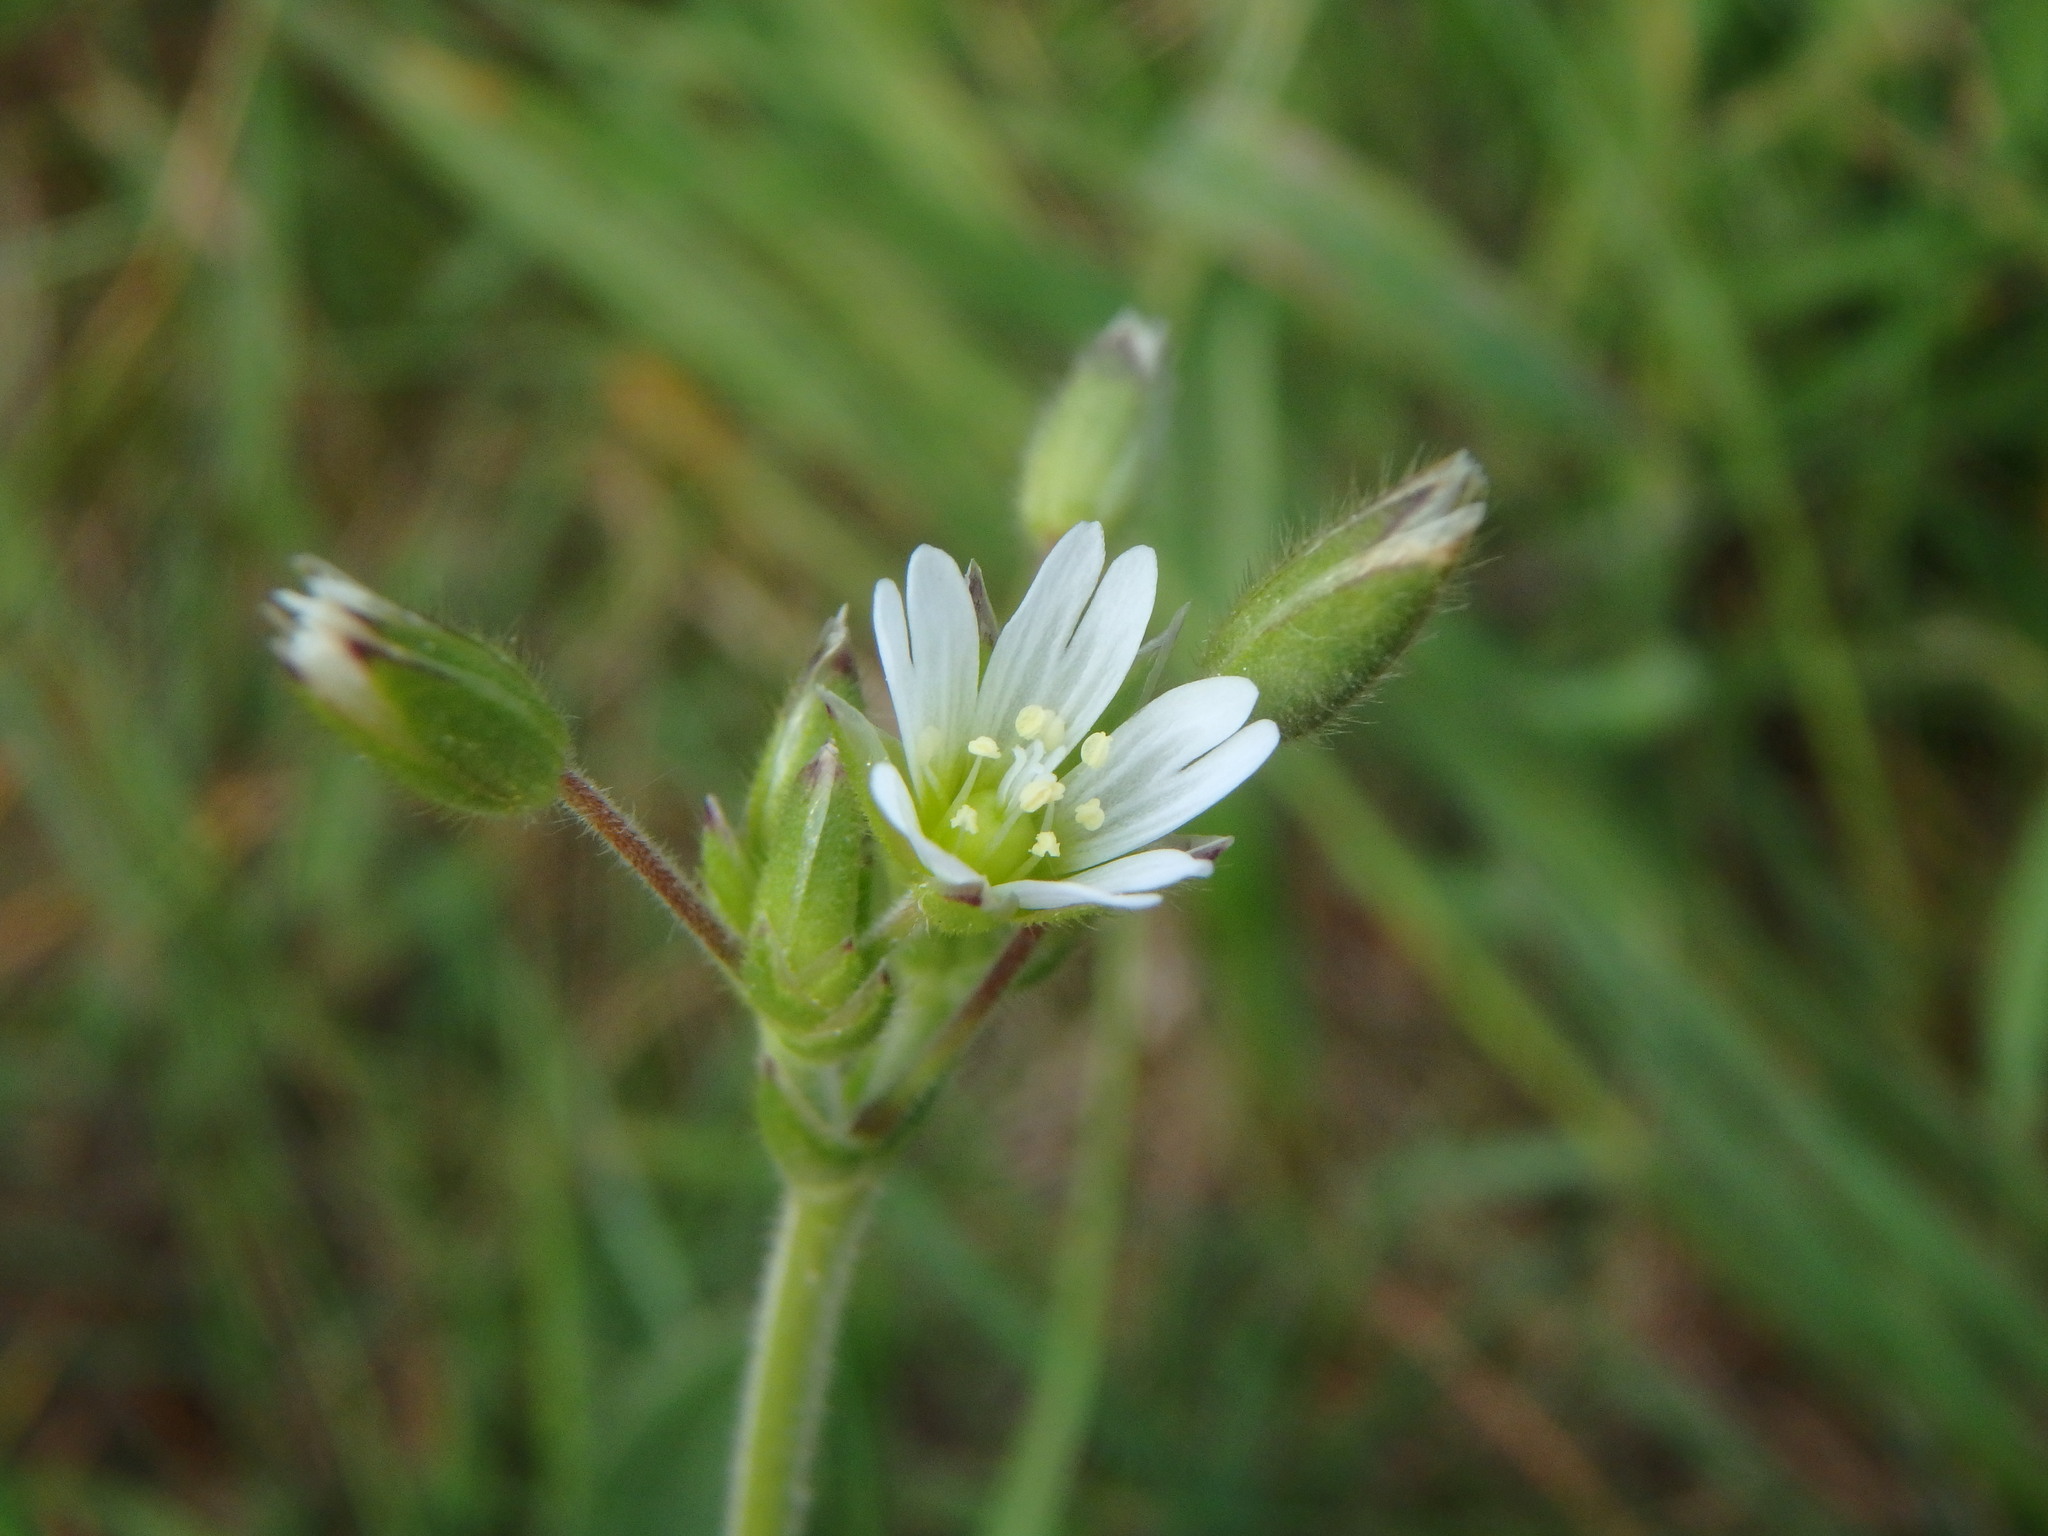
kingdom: Plantae
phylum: Tracheophyta
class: Magnoliopsida
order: Caryophyllales
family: Caryophyllaceae
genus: Cerastium
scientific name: Cerastium fontanum
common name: Common mouse-ear
